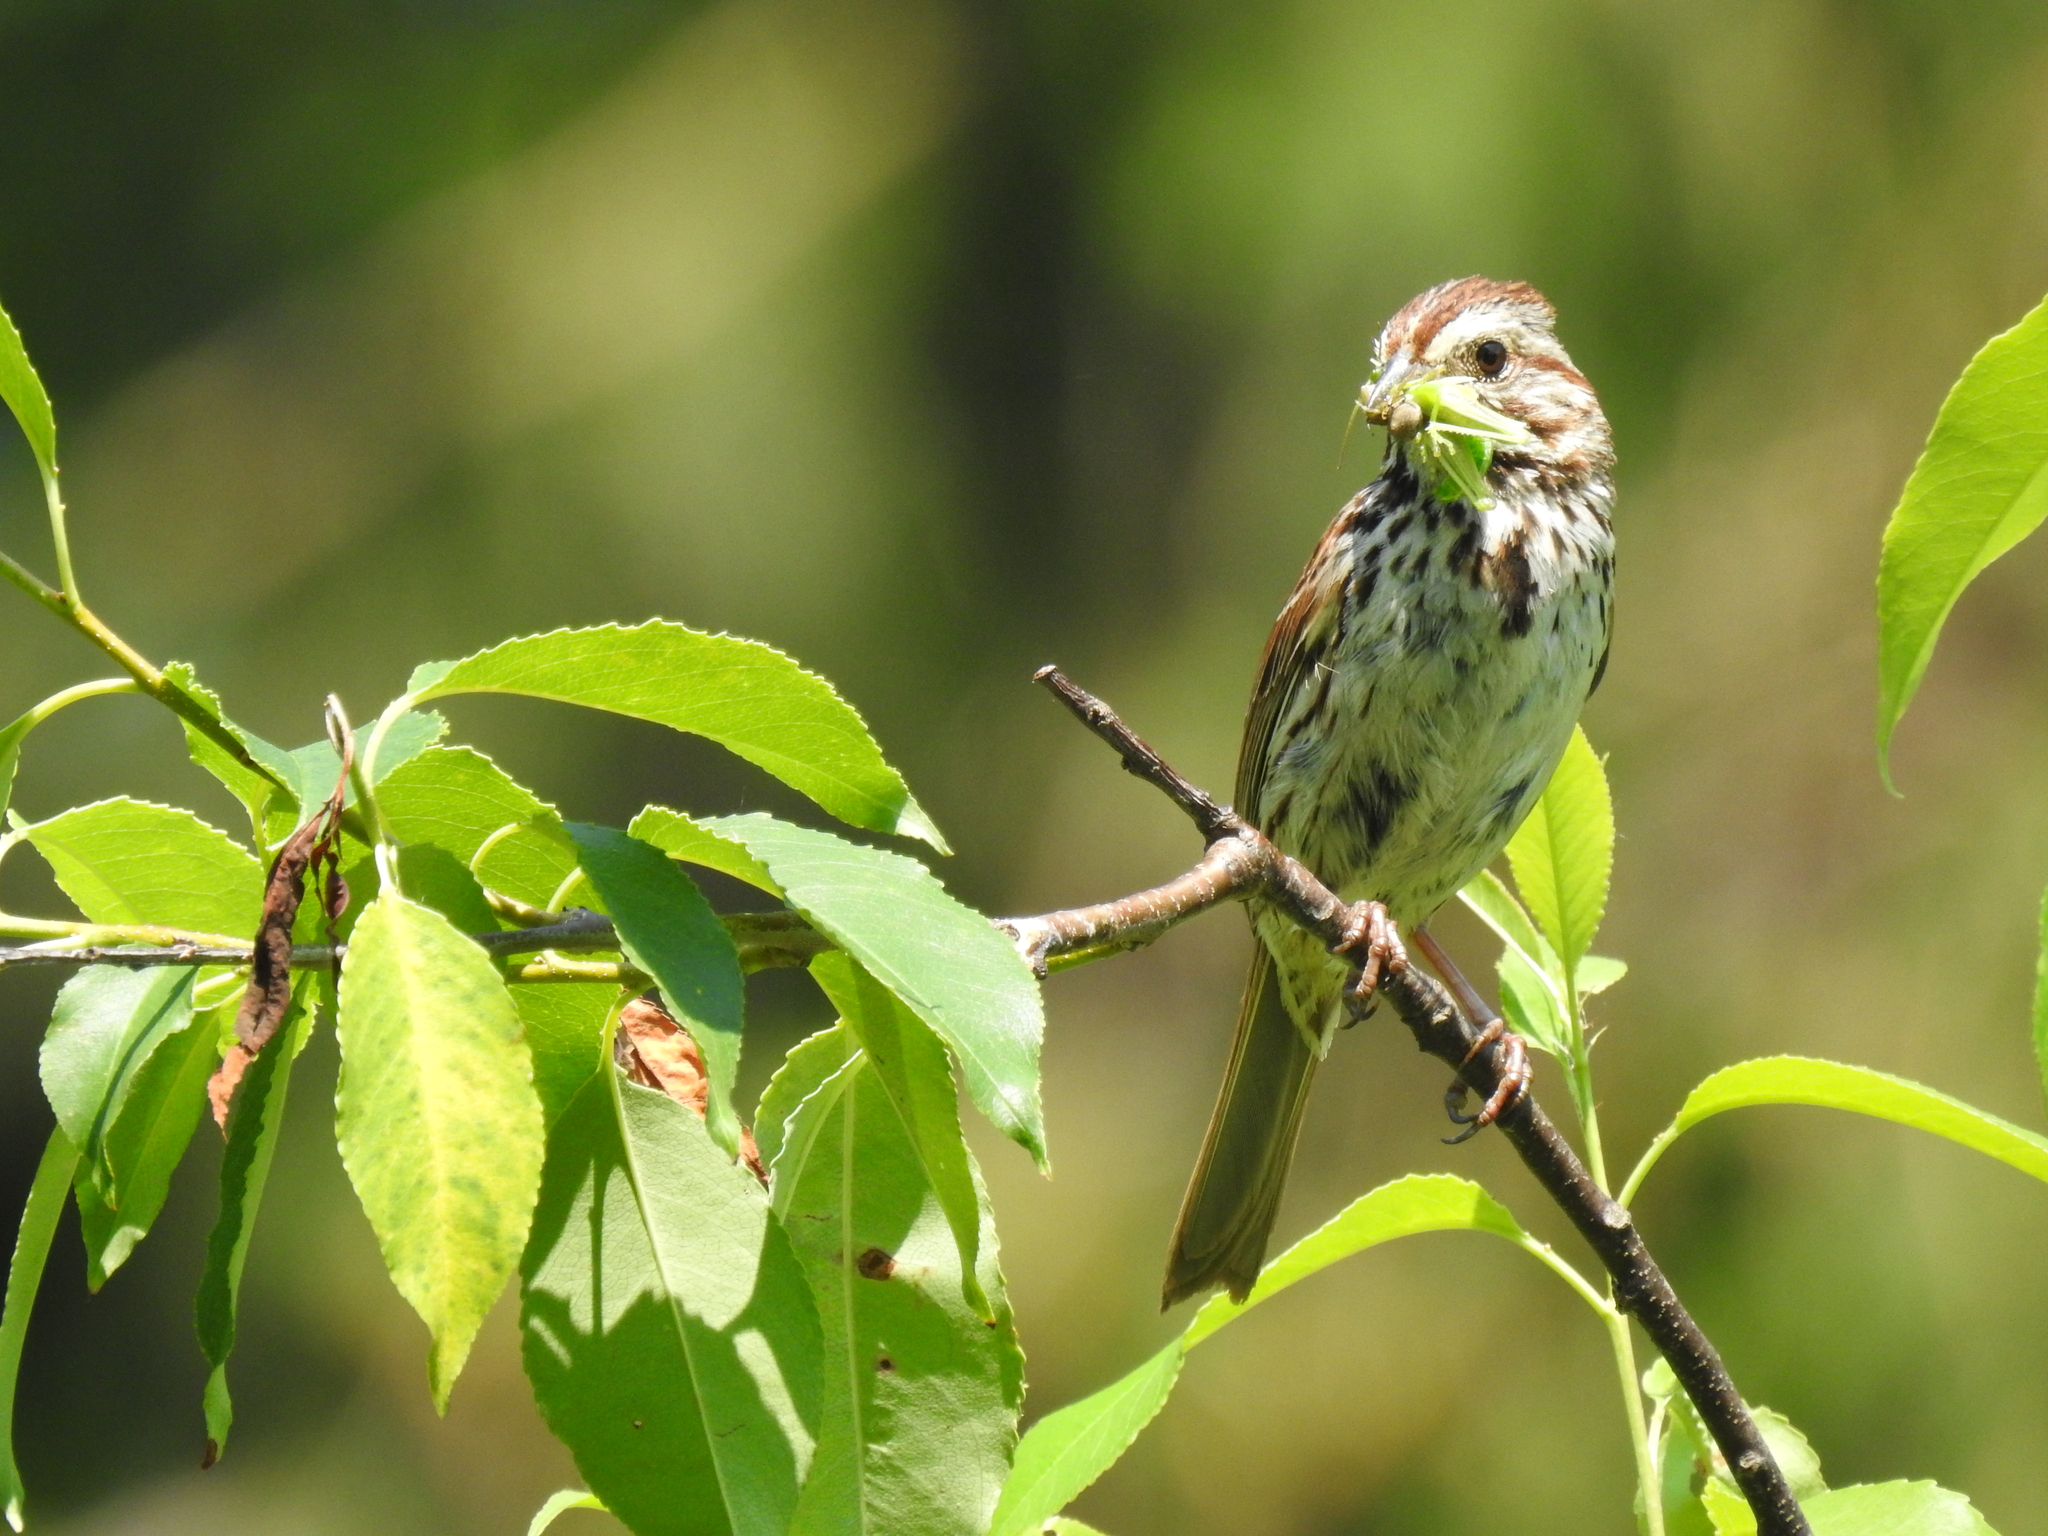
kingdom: Animalia
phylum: Chordata
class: Aves
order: Passeriformes
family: Passerellidae
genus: Melospiza
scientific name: Melospiza melodia
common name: Song sparrow
